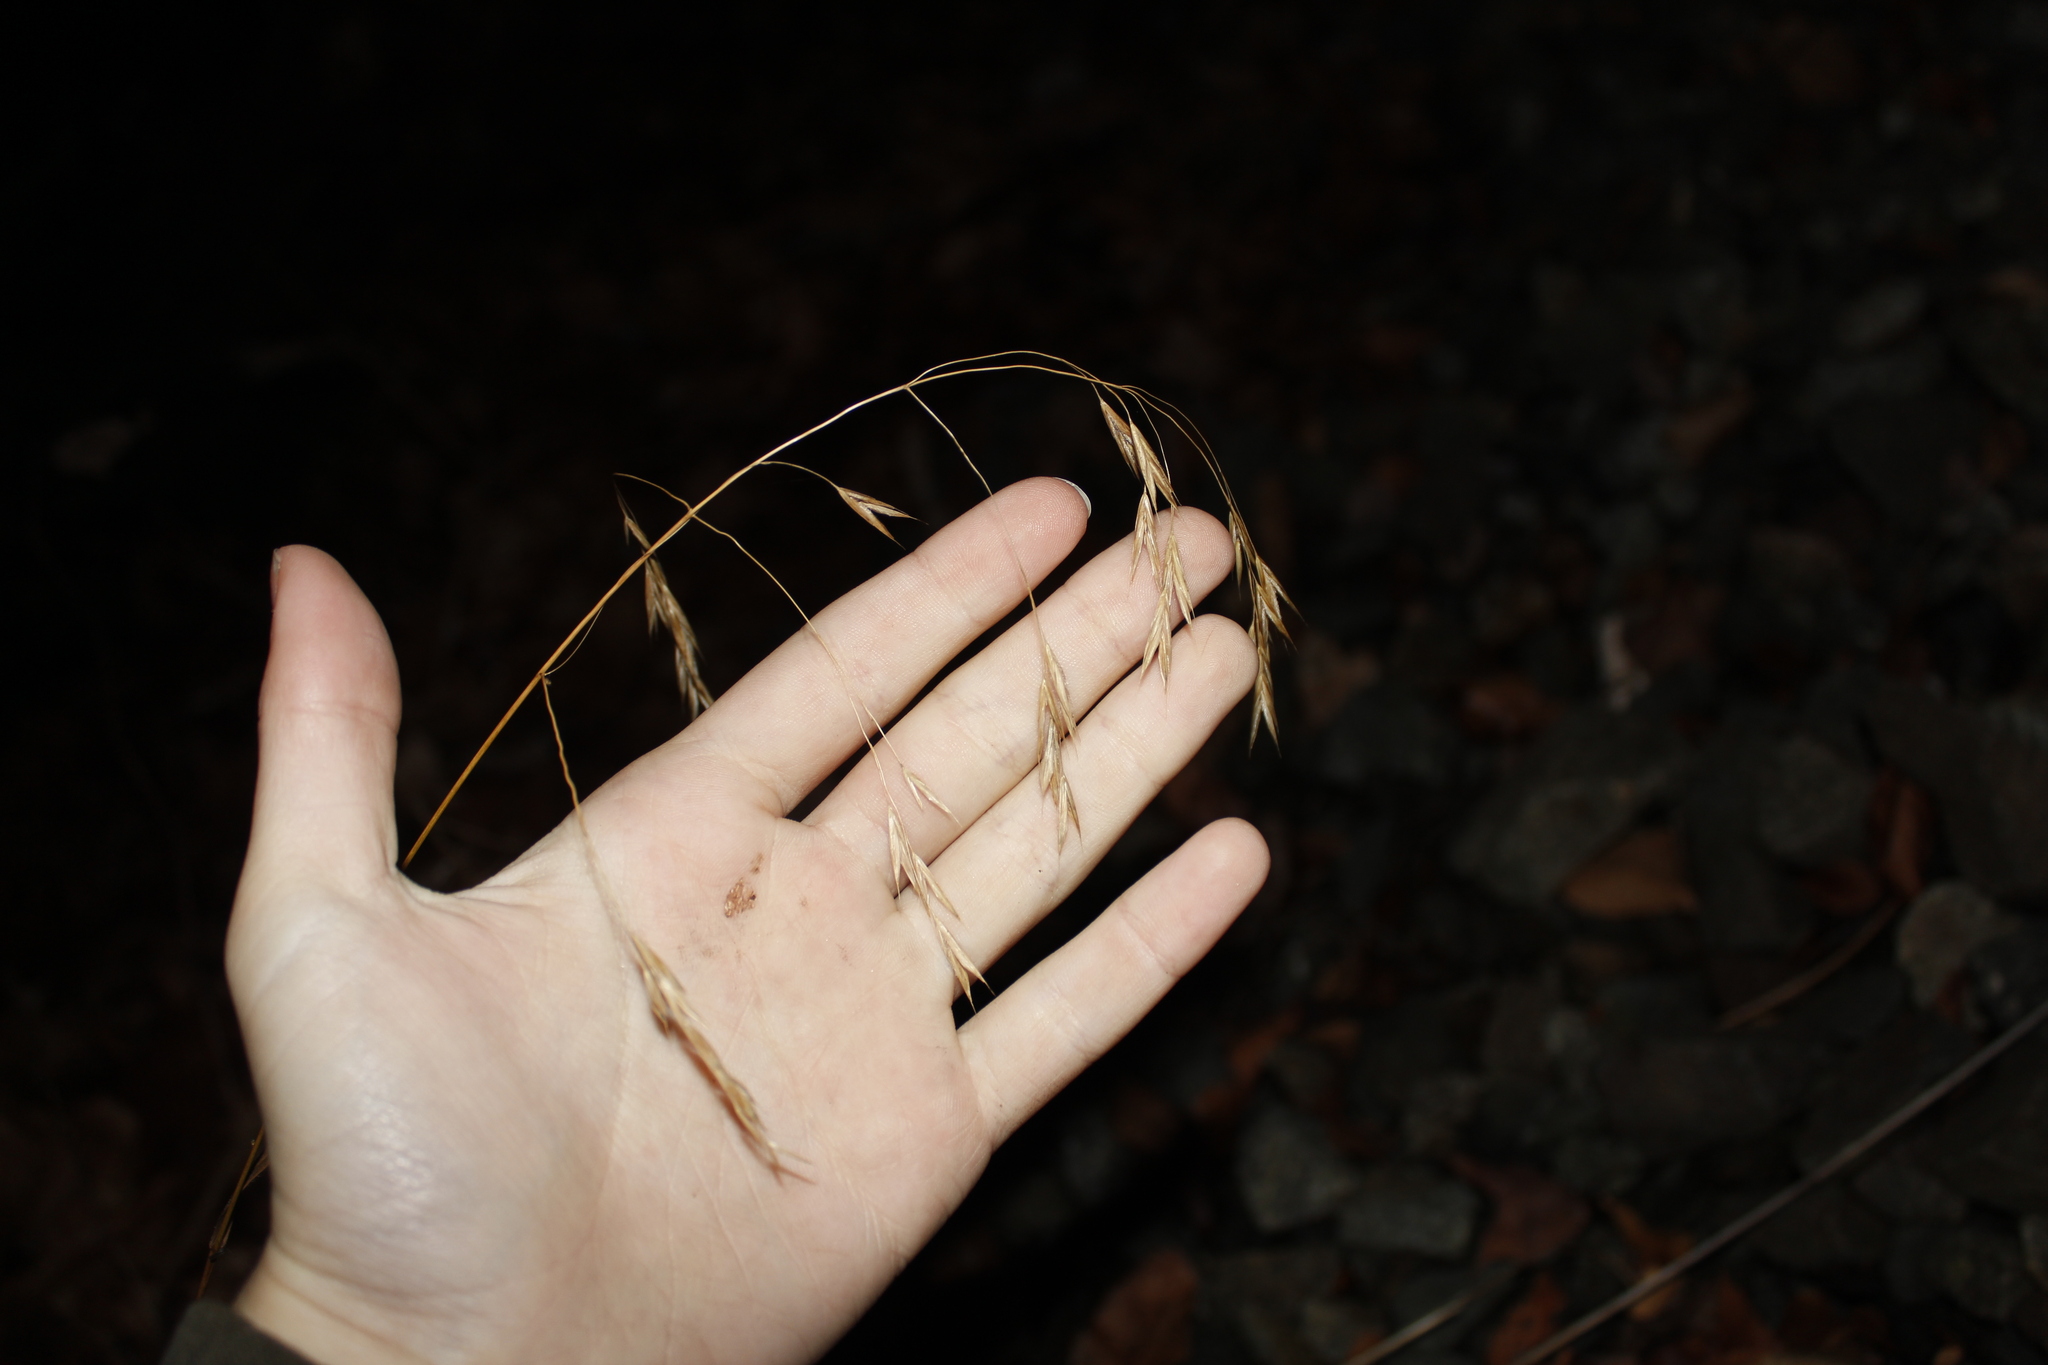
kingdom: Plantae
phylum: Tracheophyta
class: Liliopsida
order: Poales
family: Poaceae
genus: Bromus
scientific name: Bromus ciliatus
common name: Fringe brome
